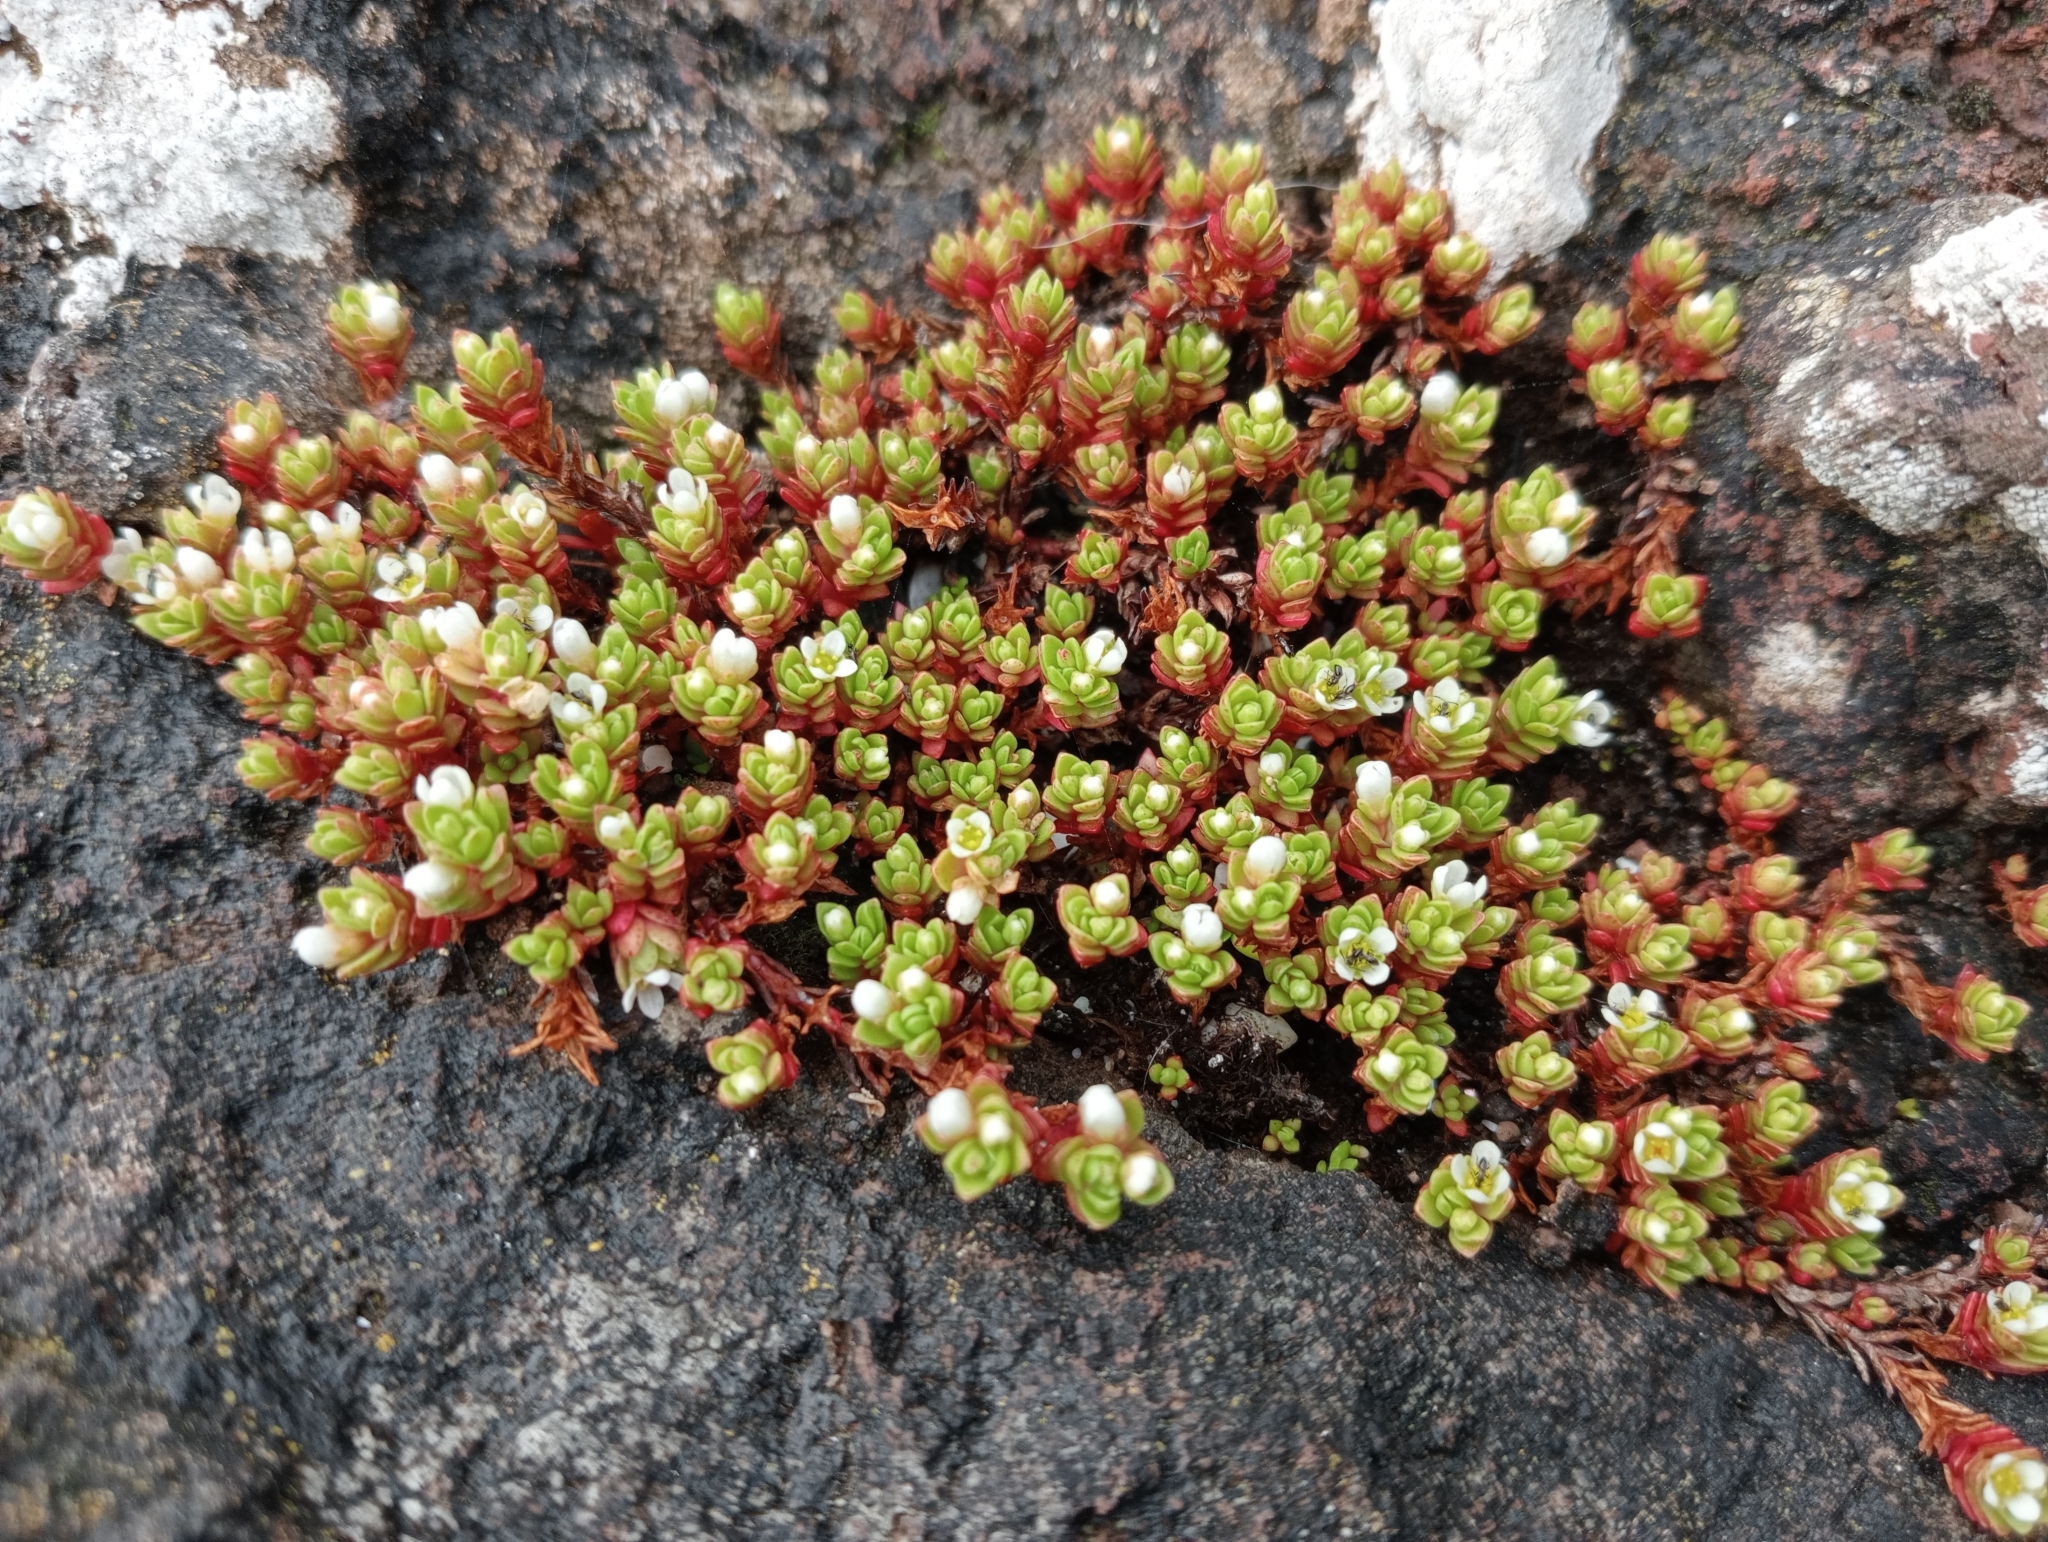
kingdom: Plantae
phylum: Tracheophyta
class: Magnoliopsida
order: Saxifragales
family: Crassulaceae
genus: Crassula
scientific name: Crassula moschata
